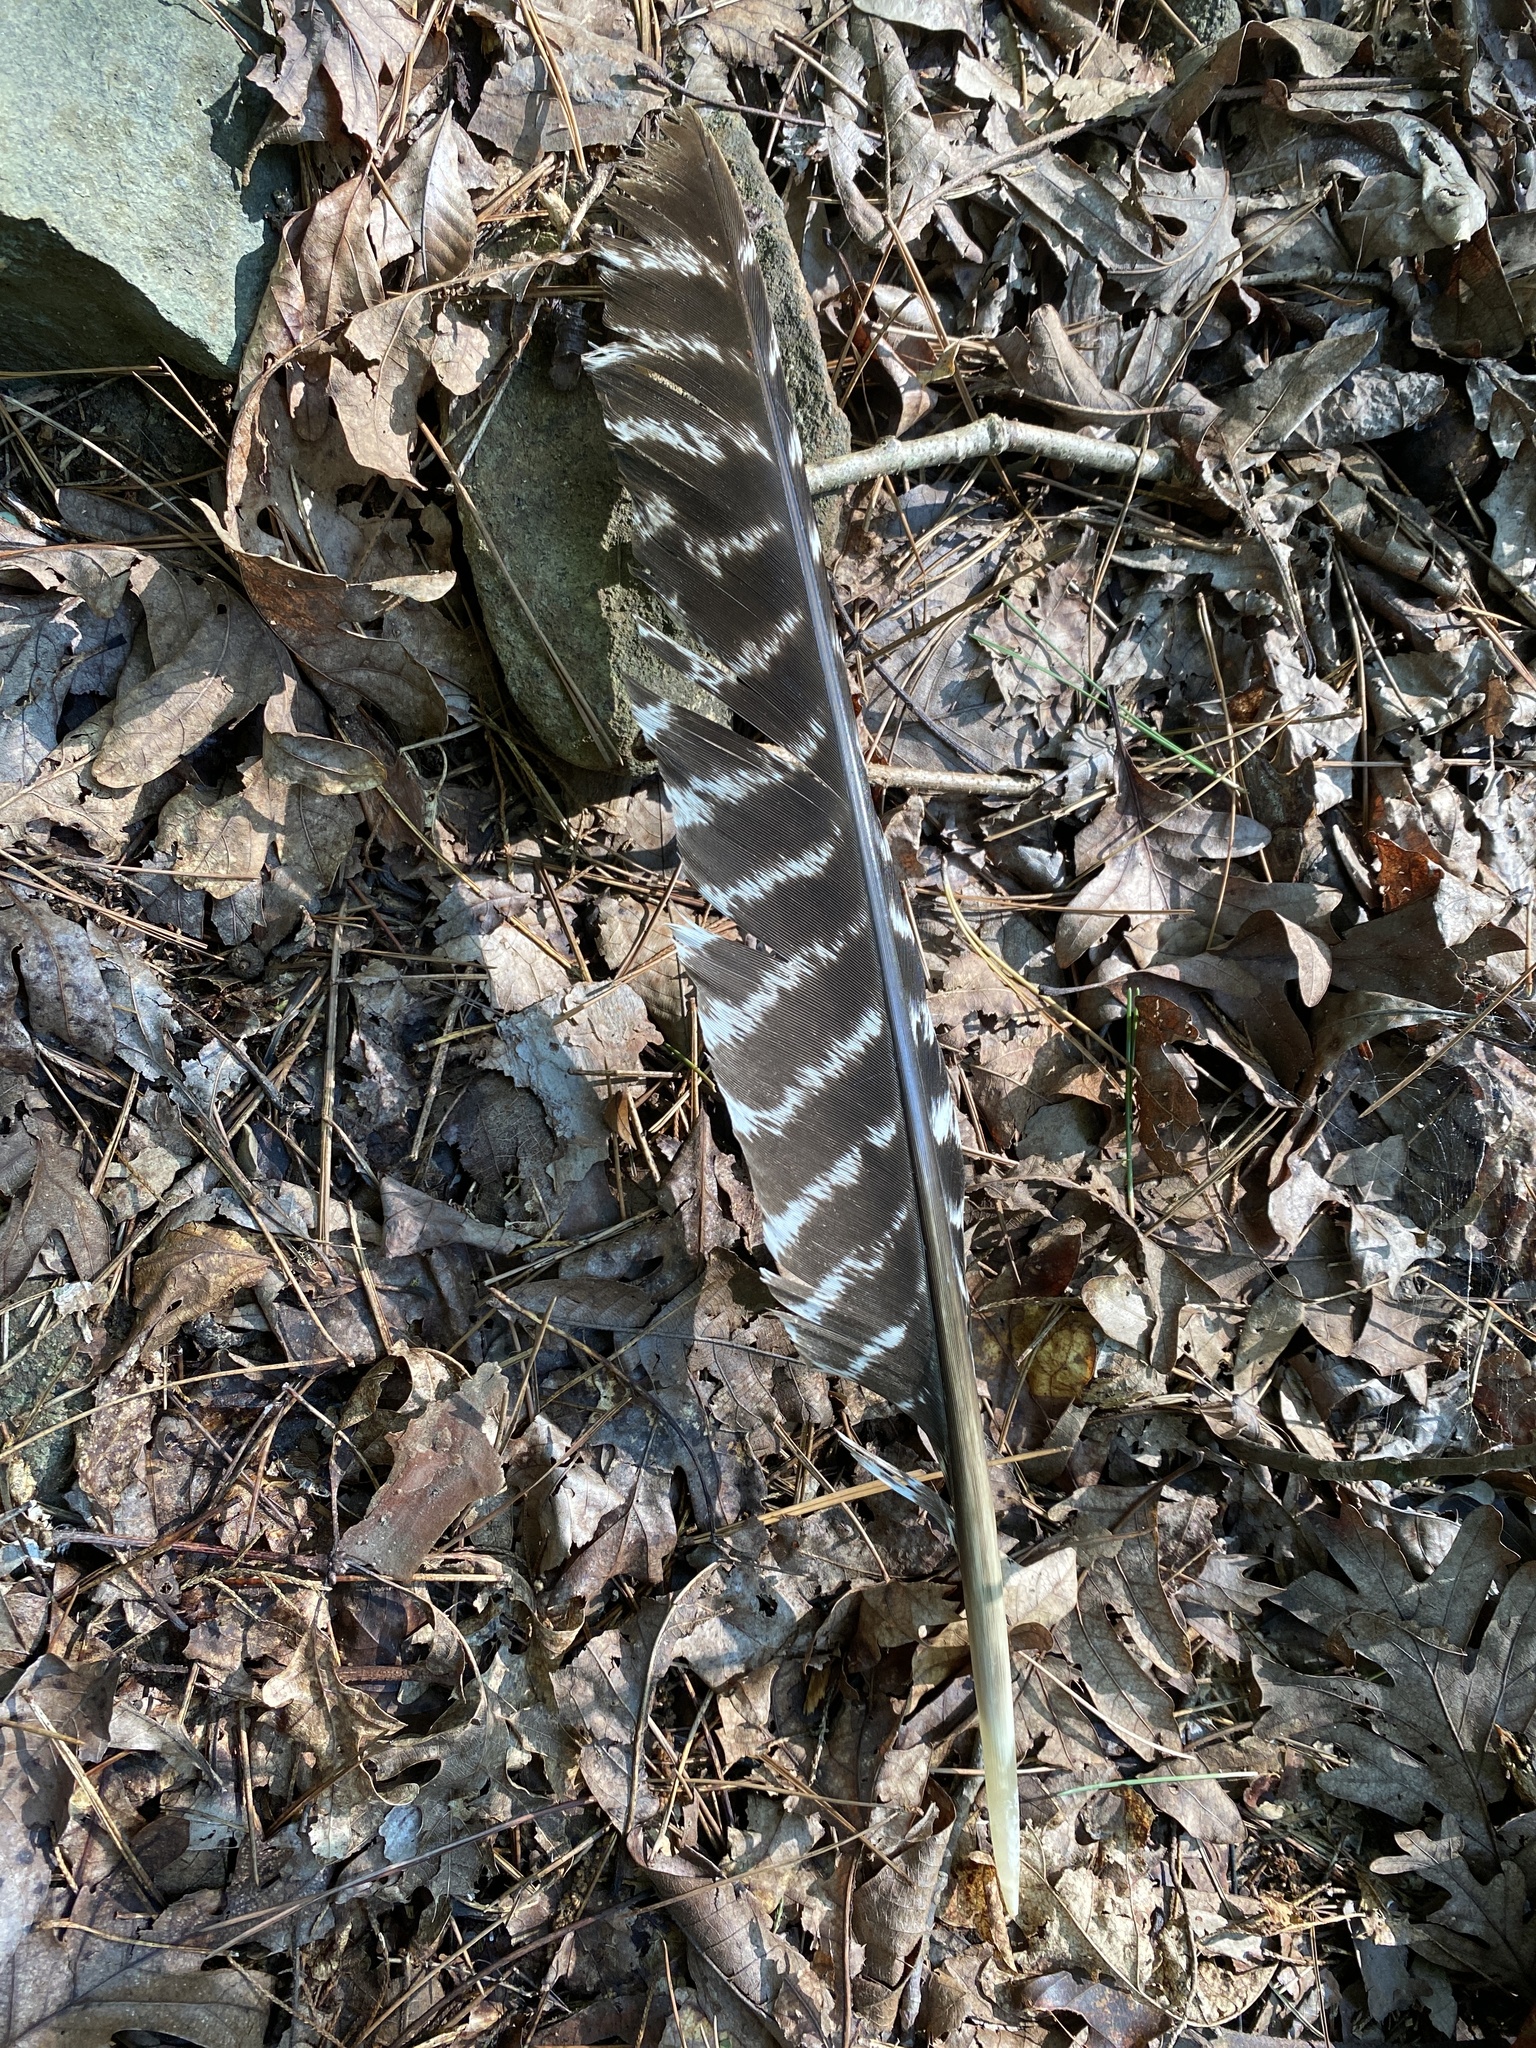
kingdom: Animalia
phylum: Chordata
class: Aves
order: Galliformes
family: Phasianidae
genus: Meleagris
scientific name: Meleagris gallopavo
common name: Wild turkey
